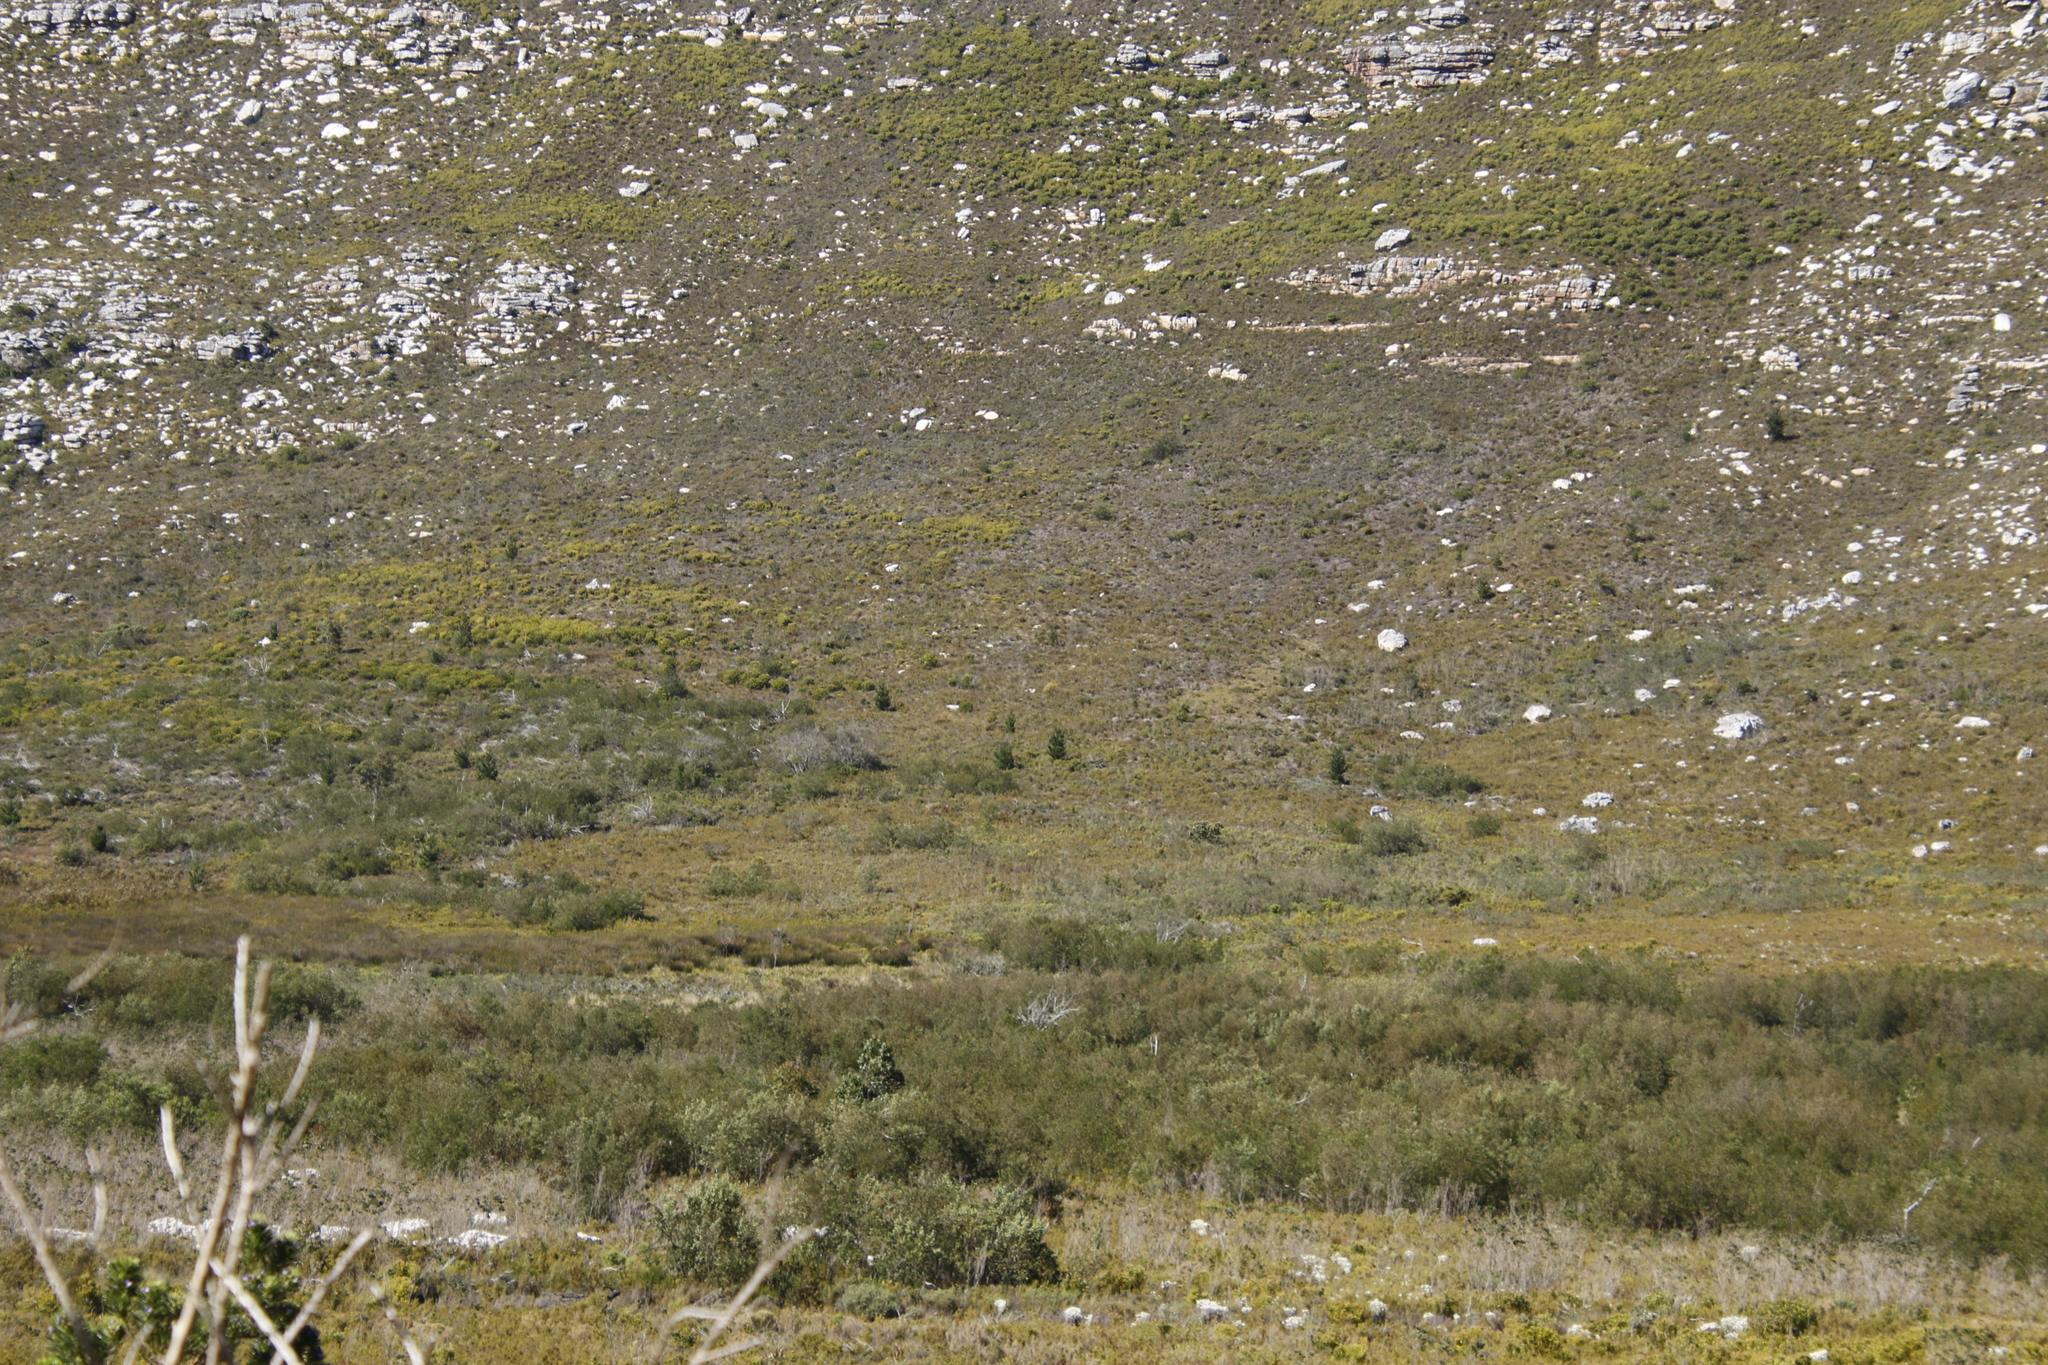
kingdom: Plantae
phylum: Tracheophyta
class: Pinopsida
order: Pinales
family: Pinaceae
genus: Pinus
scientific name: Pinus radiata
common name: Monterey pine
